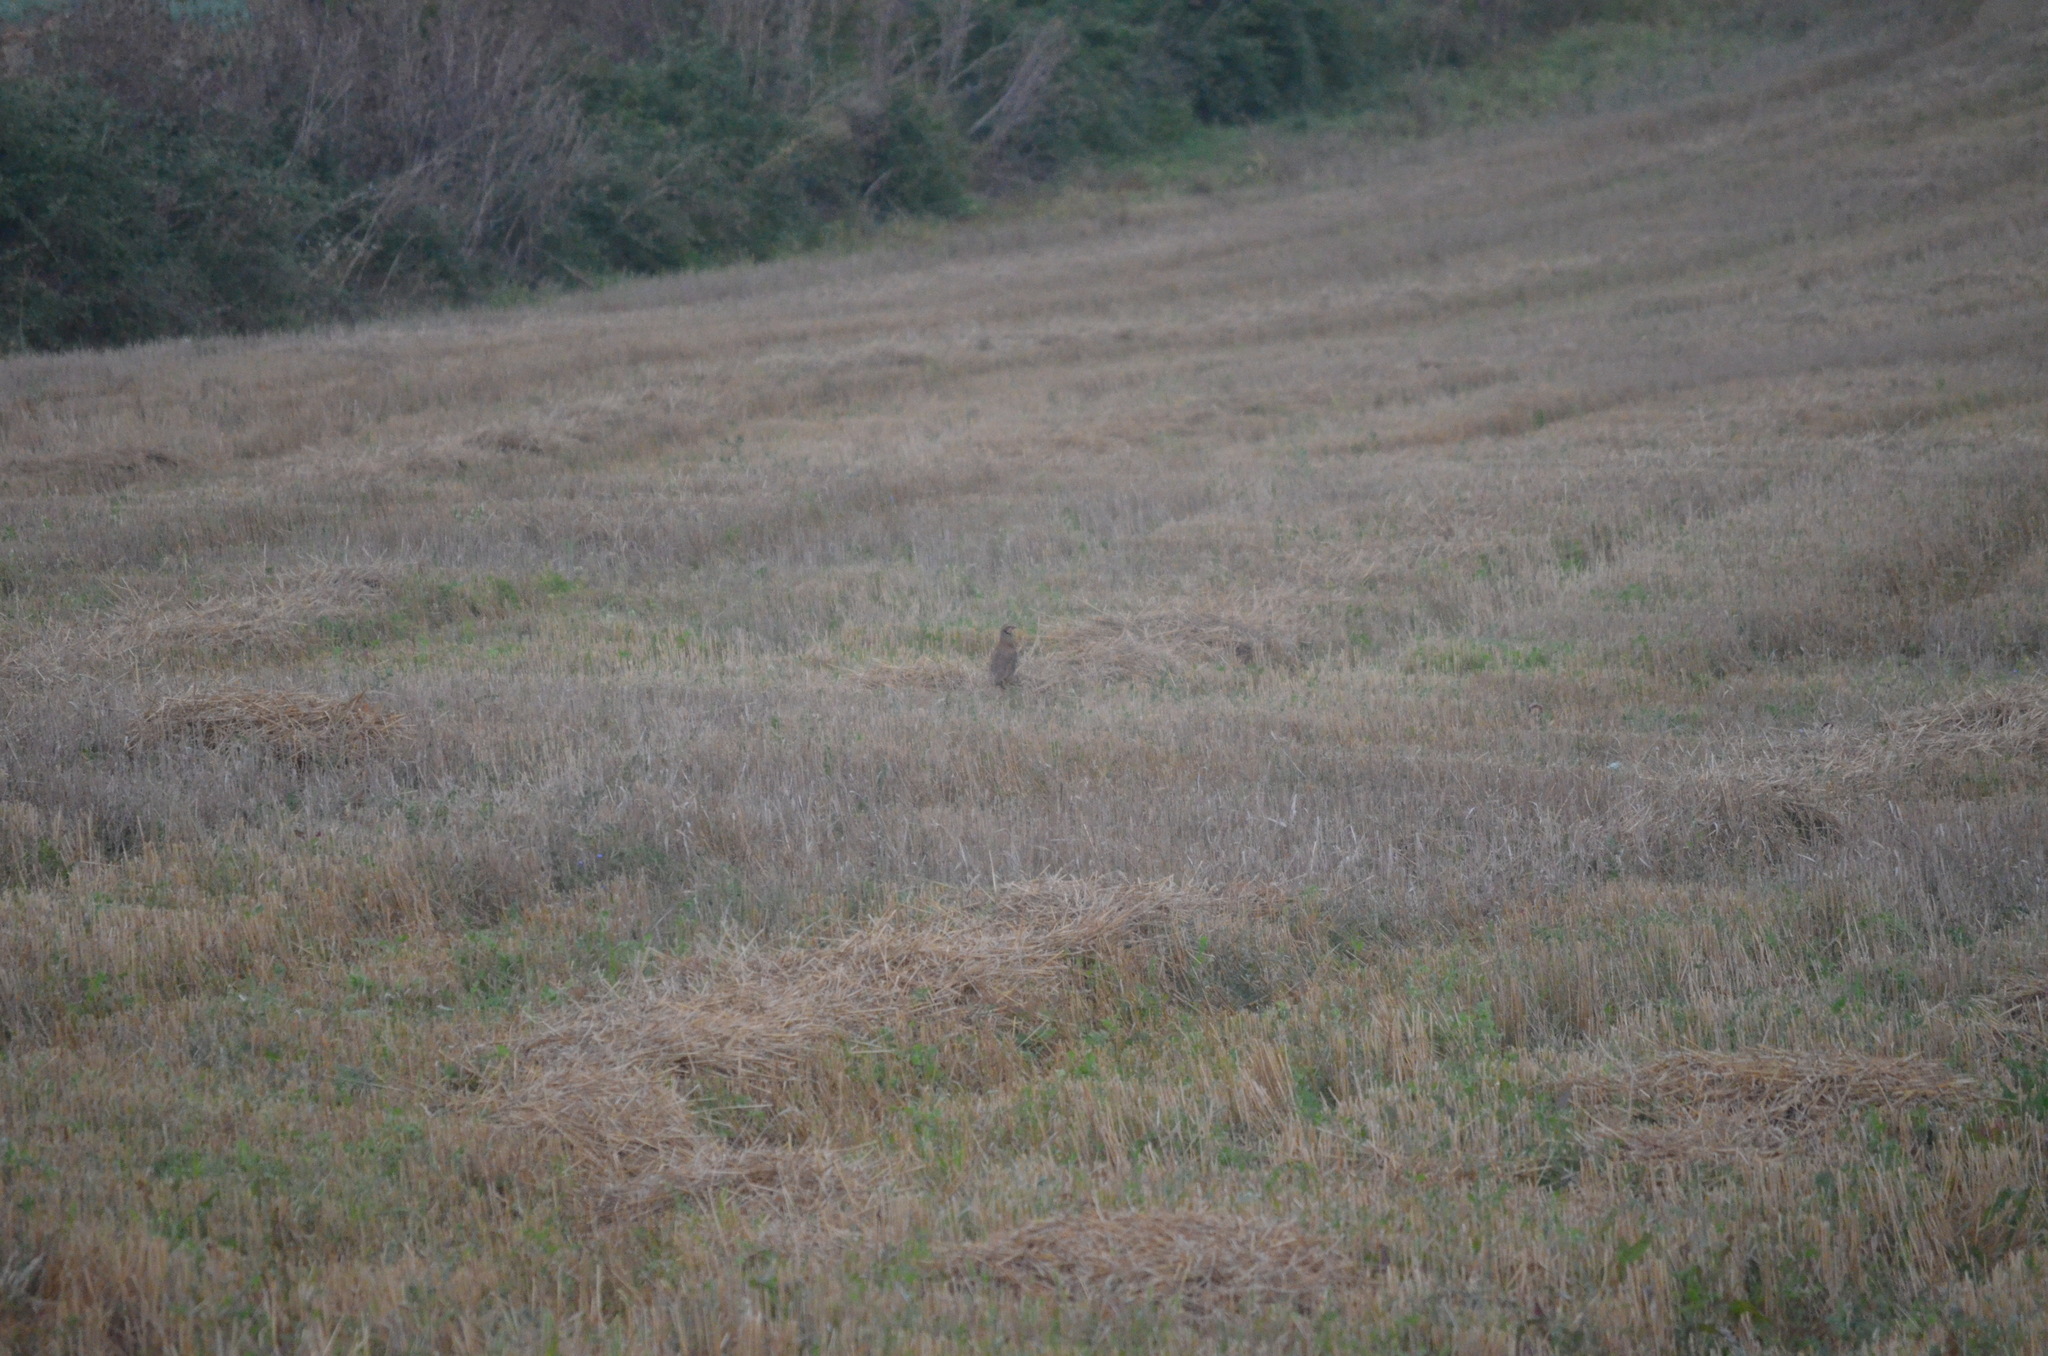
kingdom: Animalia
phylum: Chordata
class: Aves
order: Galliformes
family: Phasianidae
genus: Alectoris
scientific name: Alectoris rufa
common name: Red-legged partridge
